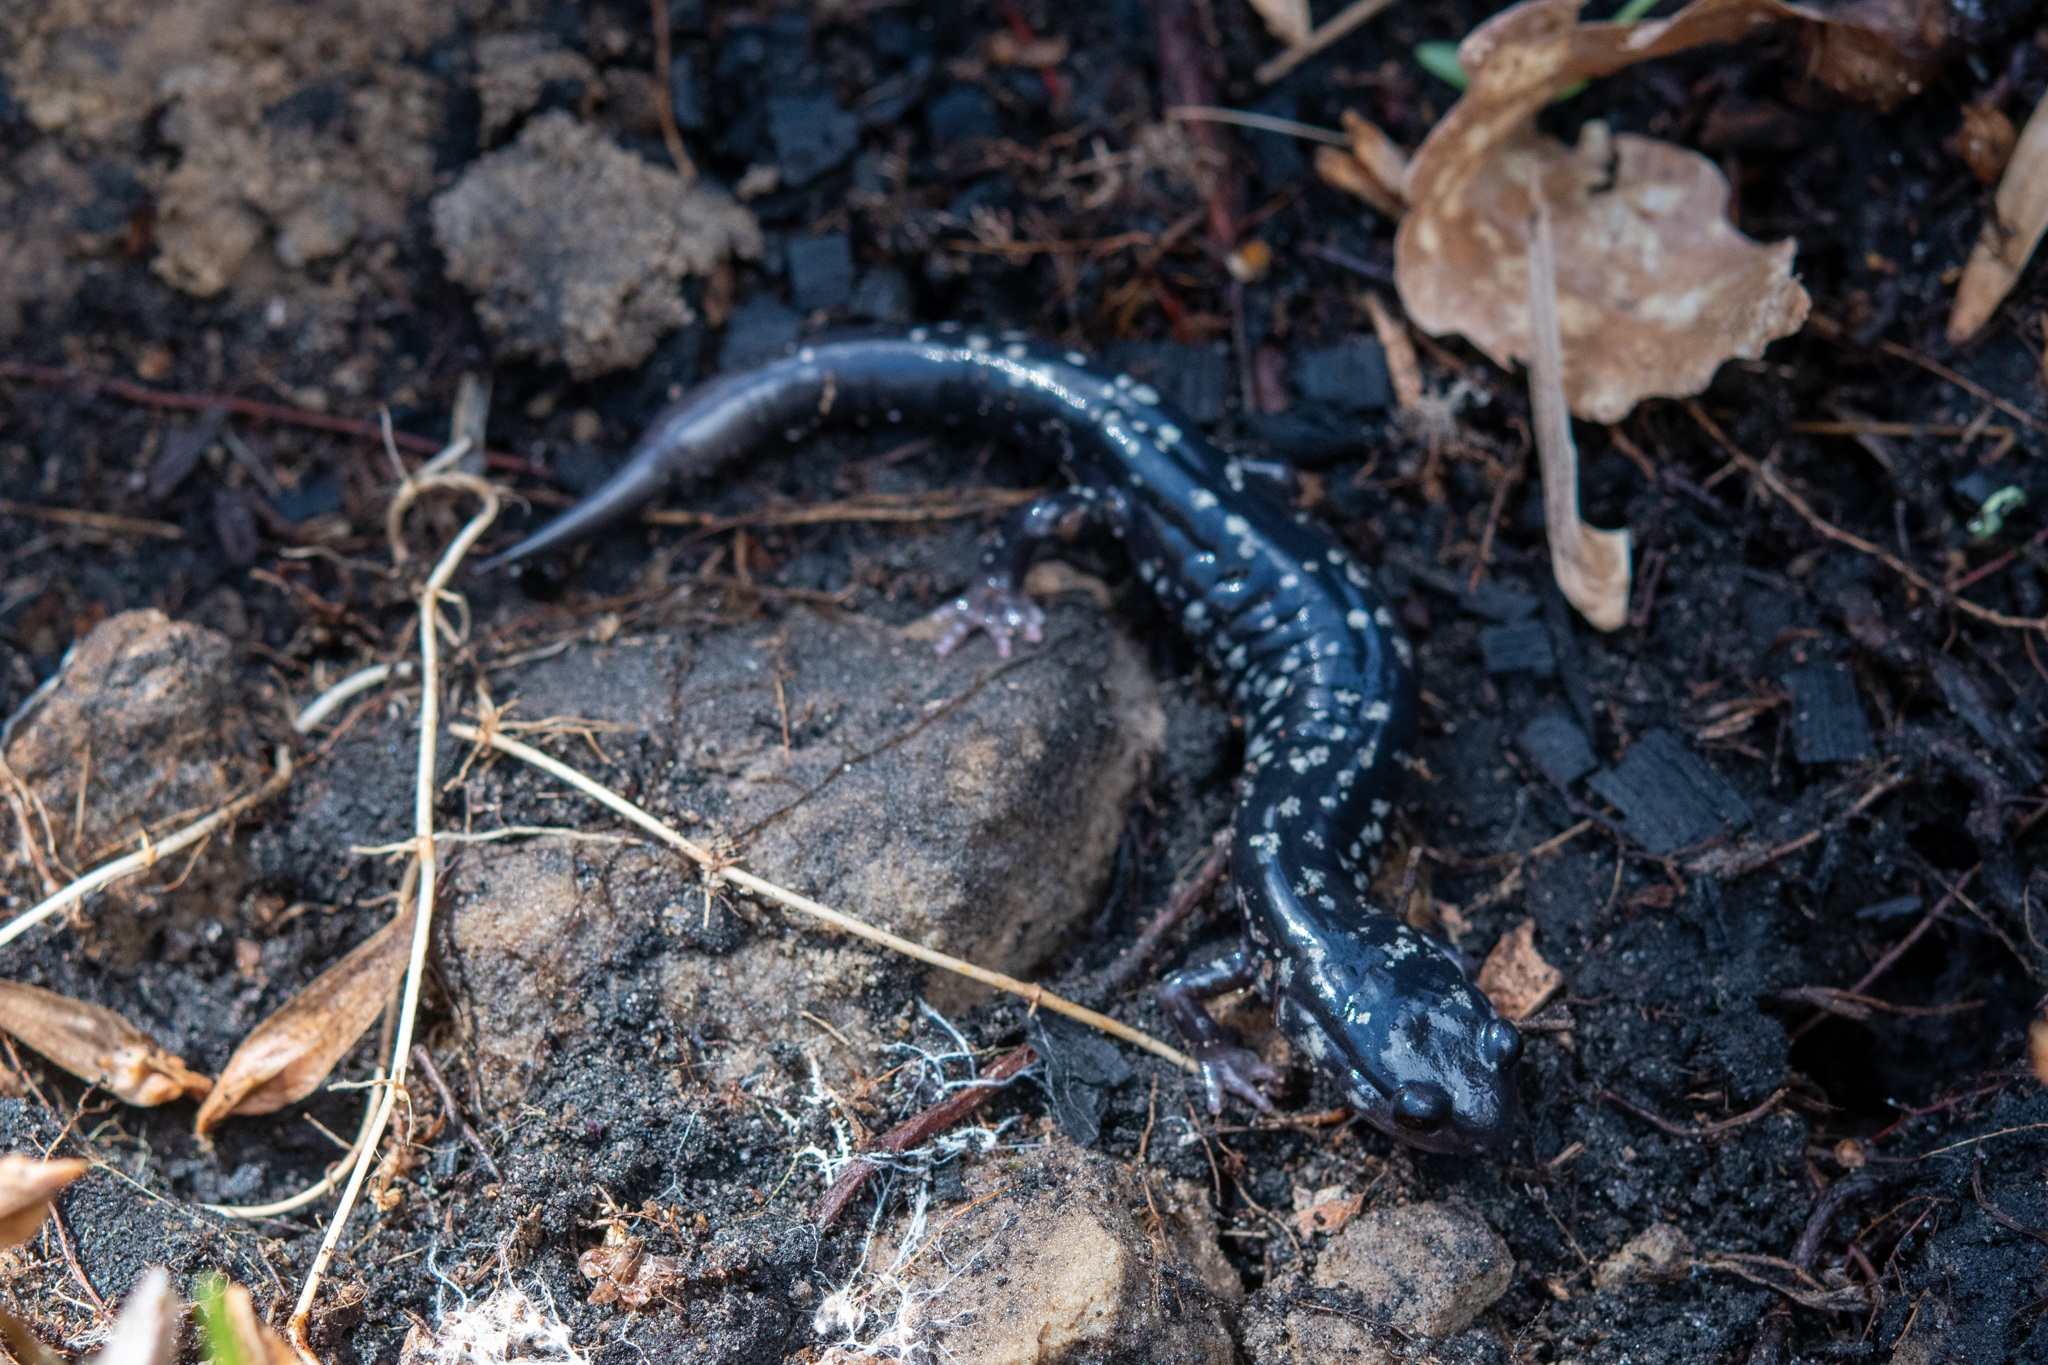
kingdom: Animalia
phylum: Chordata
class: Amphibia
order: Caudata
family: Plethodontidae
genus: Plethodon
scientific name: Plethodon glutinosus
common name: Northern slimy salamander
